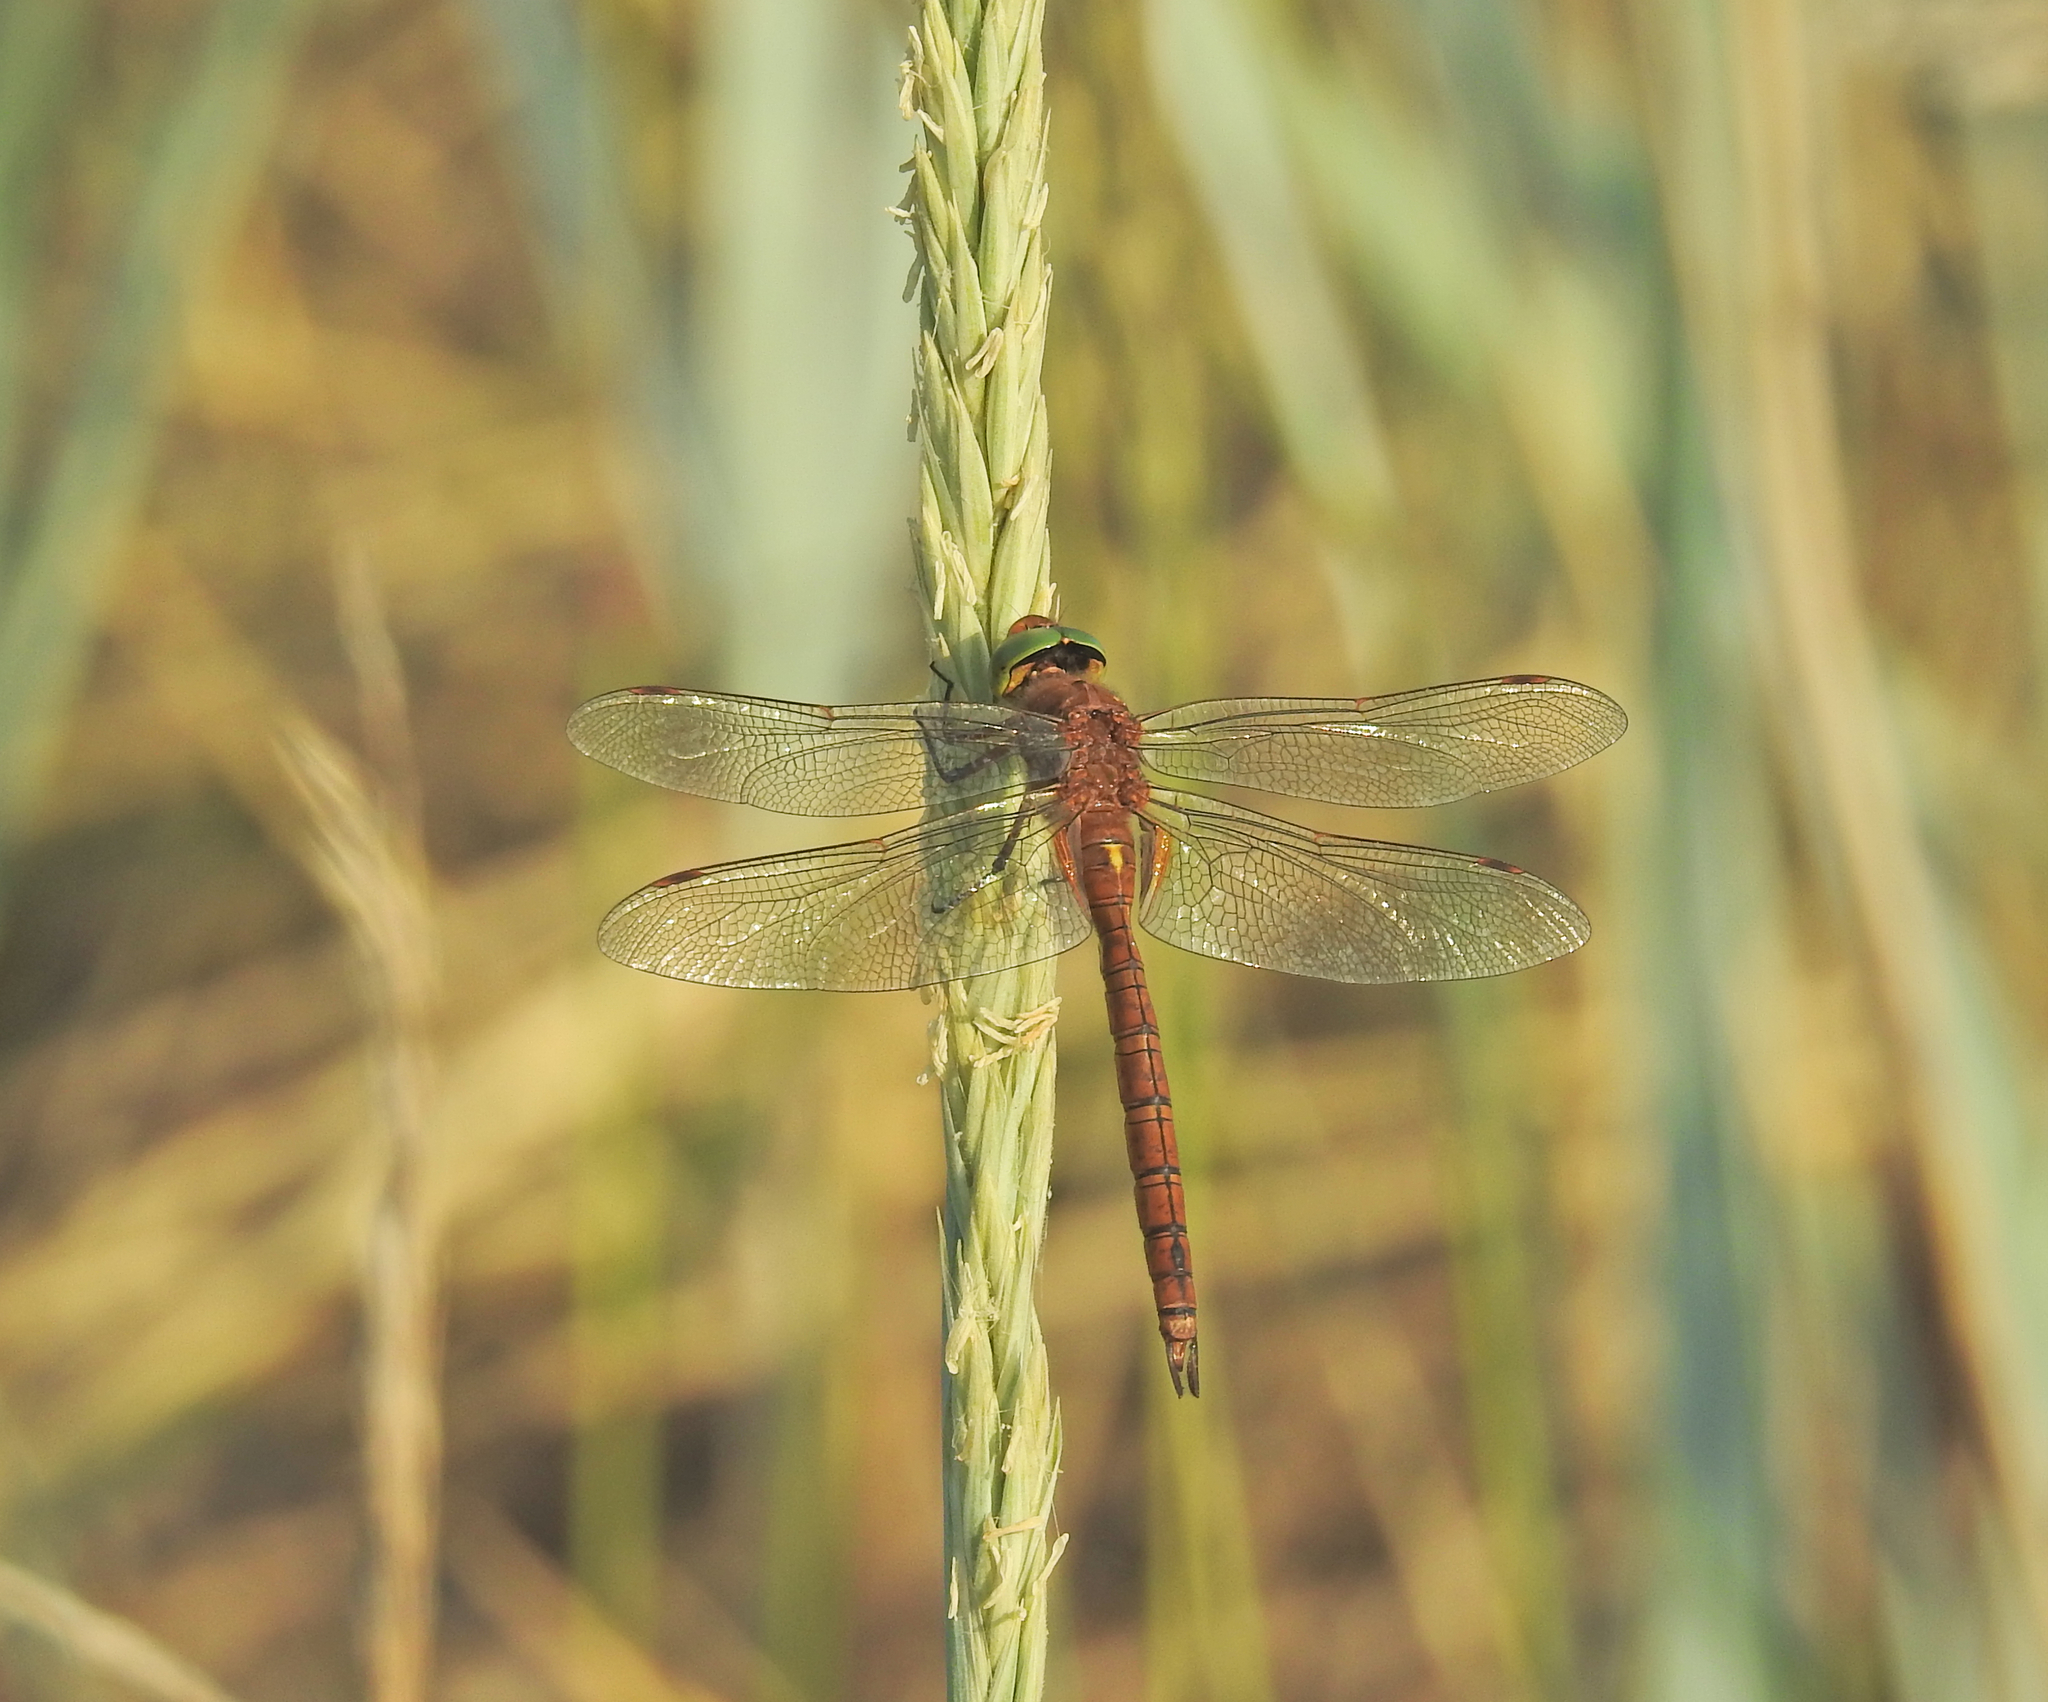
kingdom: Animalia
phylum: Arthropoda
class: Insecta
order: Odonata
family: Aeshnidae
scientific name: Aeshnidae
